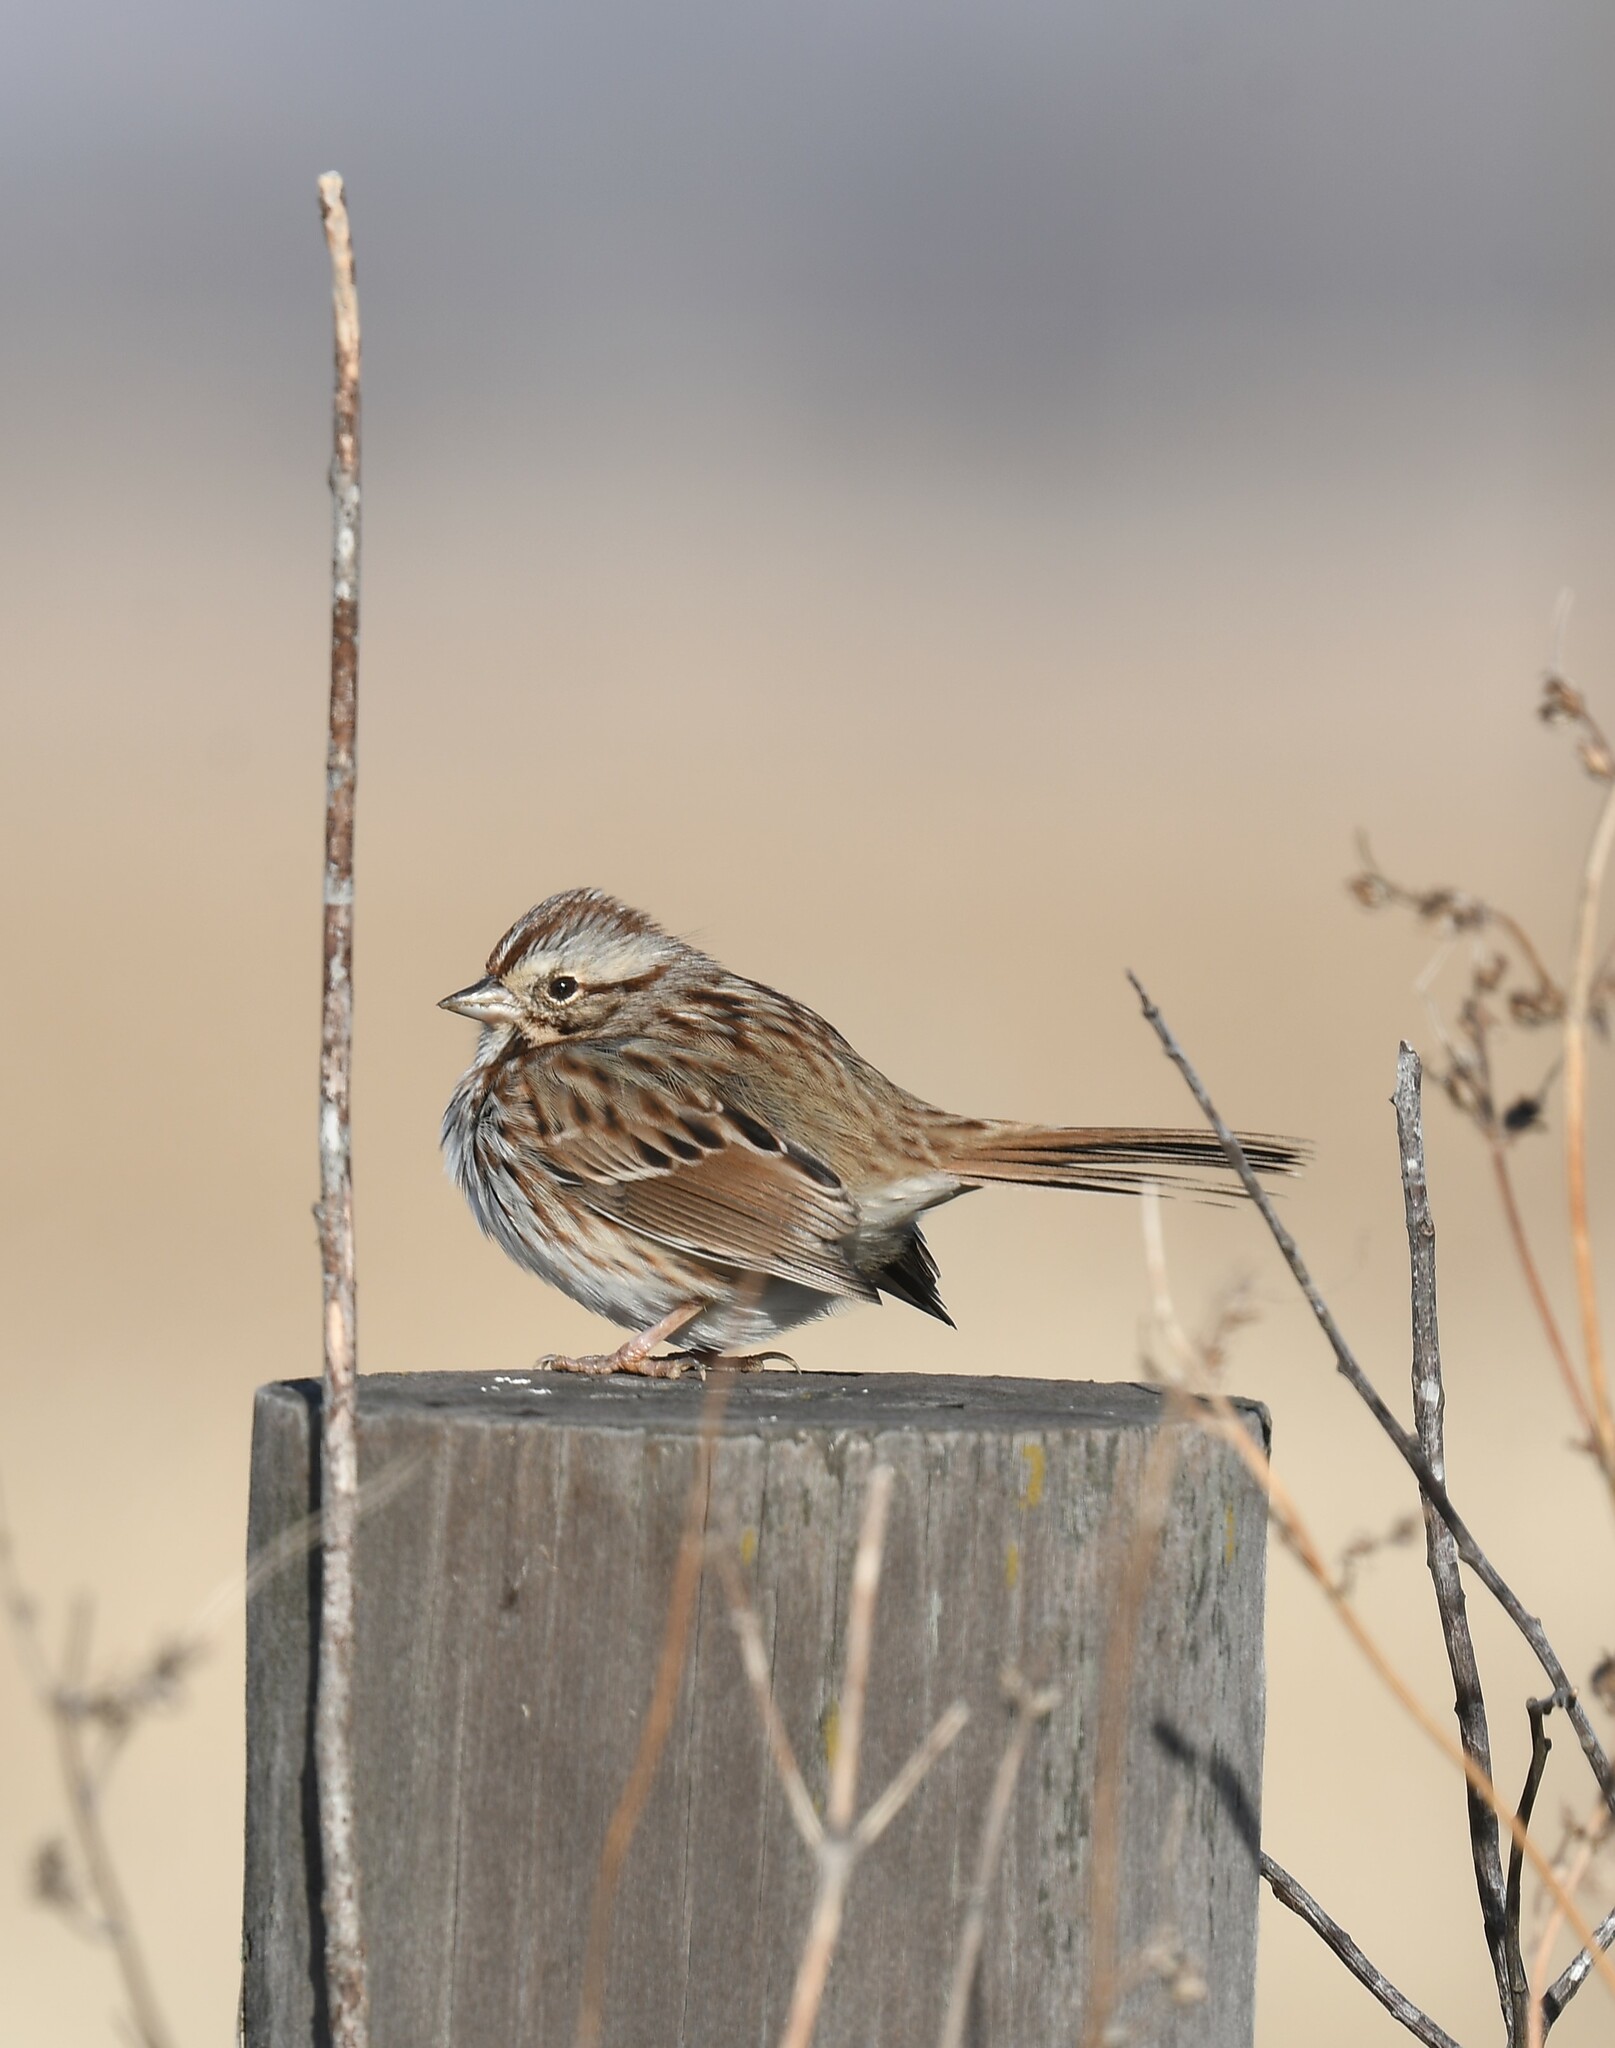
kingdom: Animalia
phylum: Chordata
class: Aves
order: Passeriformes
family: Passerellidae
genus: Melospiza
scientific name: Melospiza melodia
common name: Song sparrow
